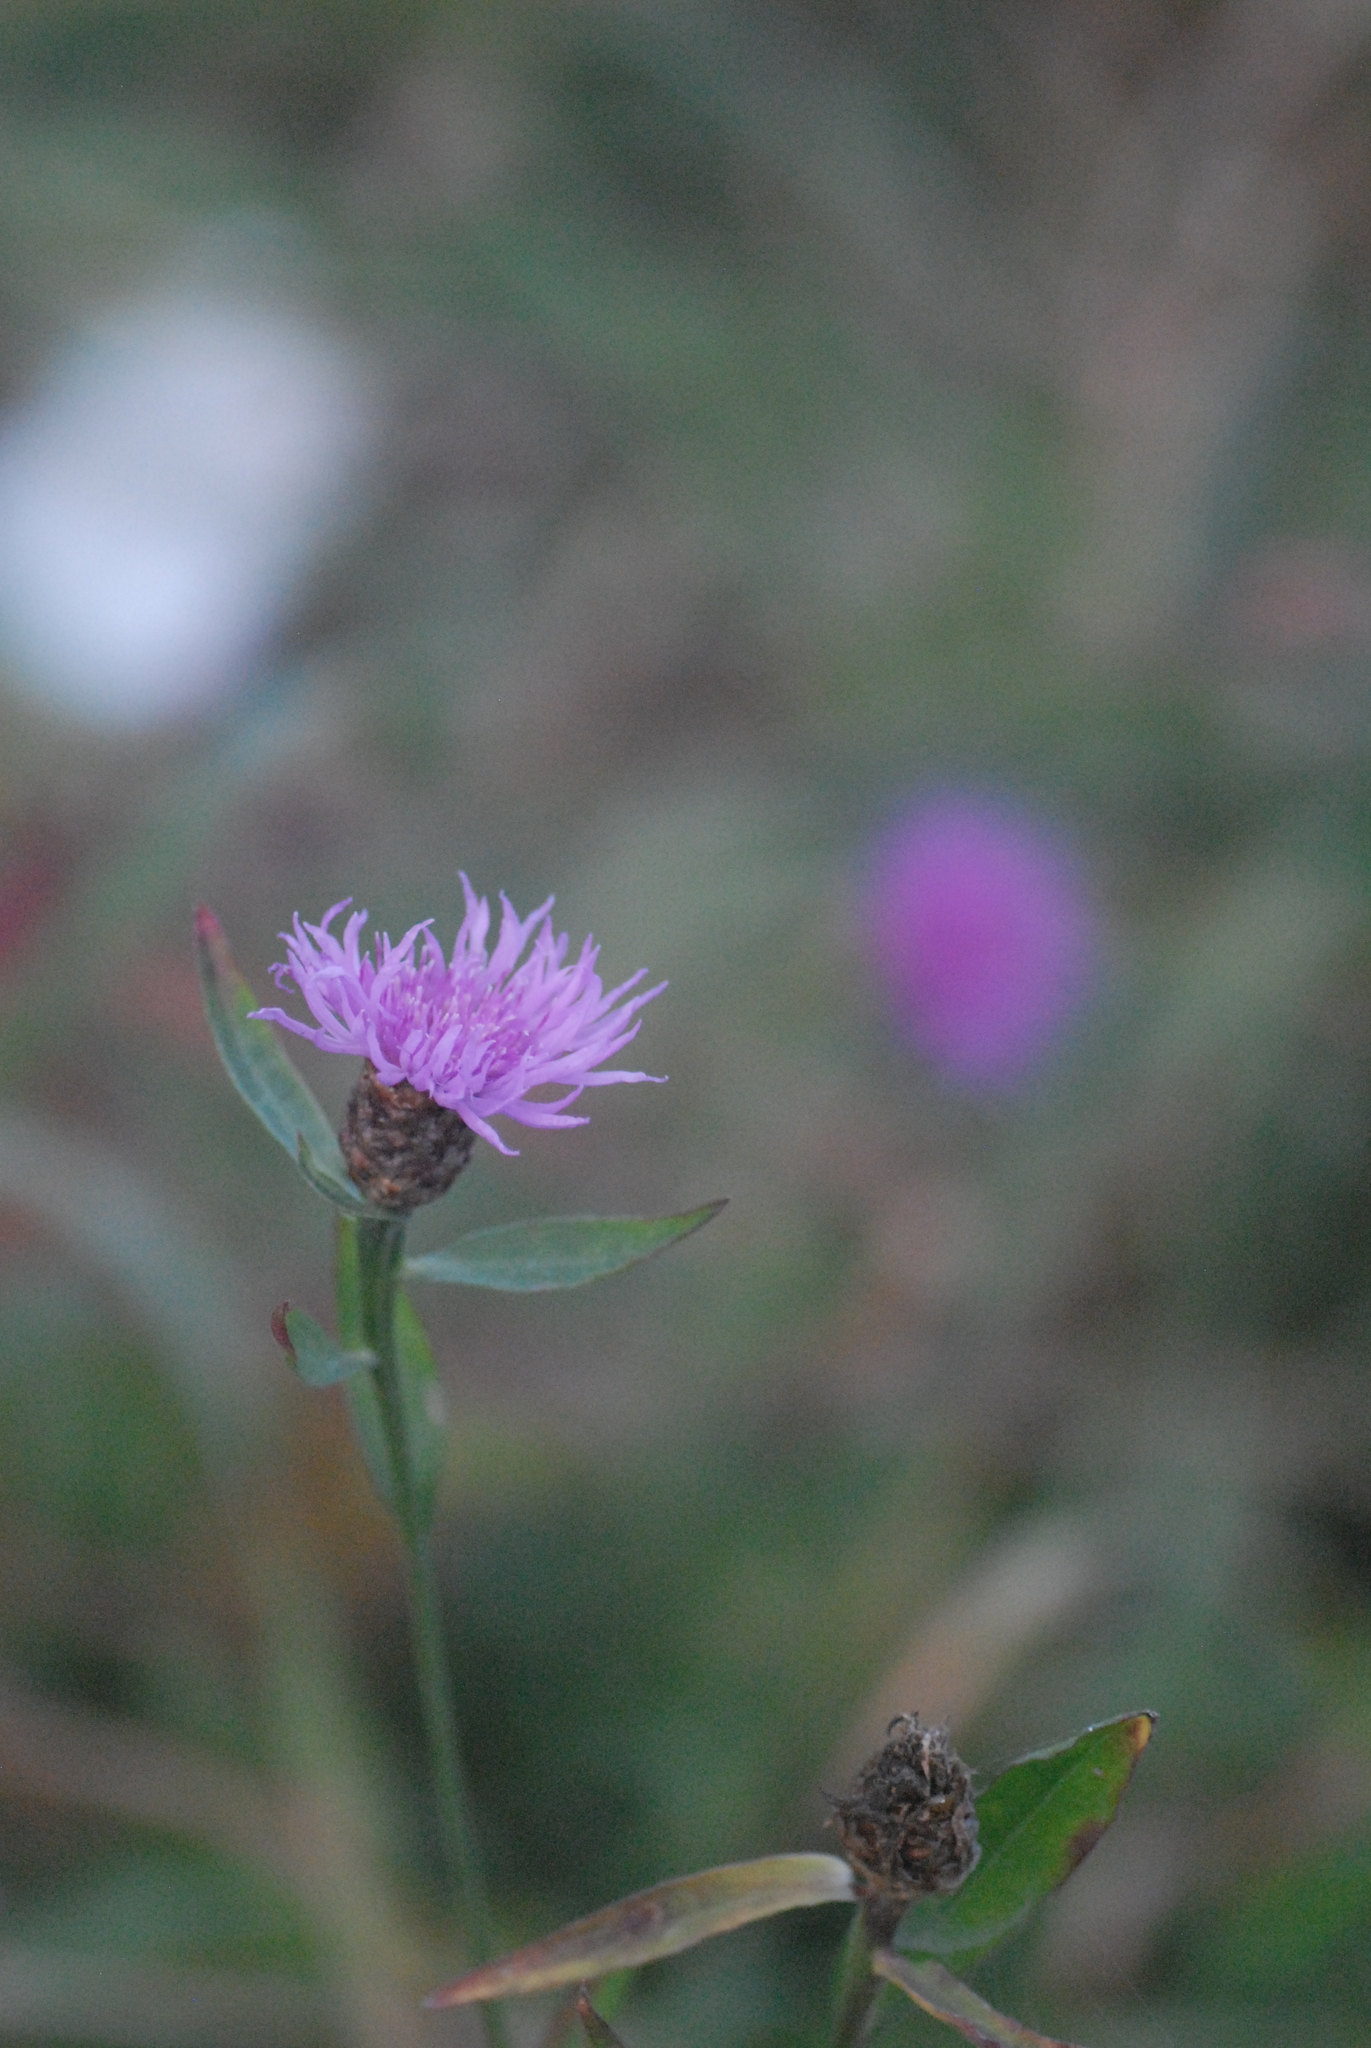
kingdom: Plantae
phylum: Tracheophyta
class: Magnoliopsida
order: Asterales
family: Asteraceae
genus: Centaurea
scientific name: Centaurea jacea
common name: Brown knapweed
